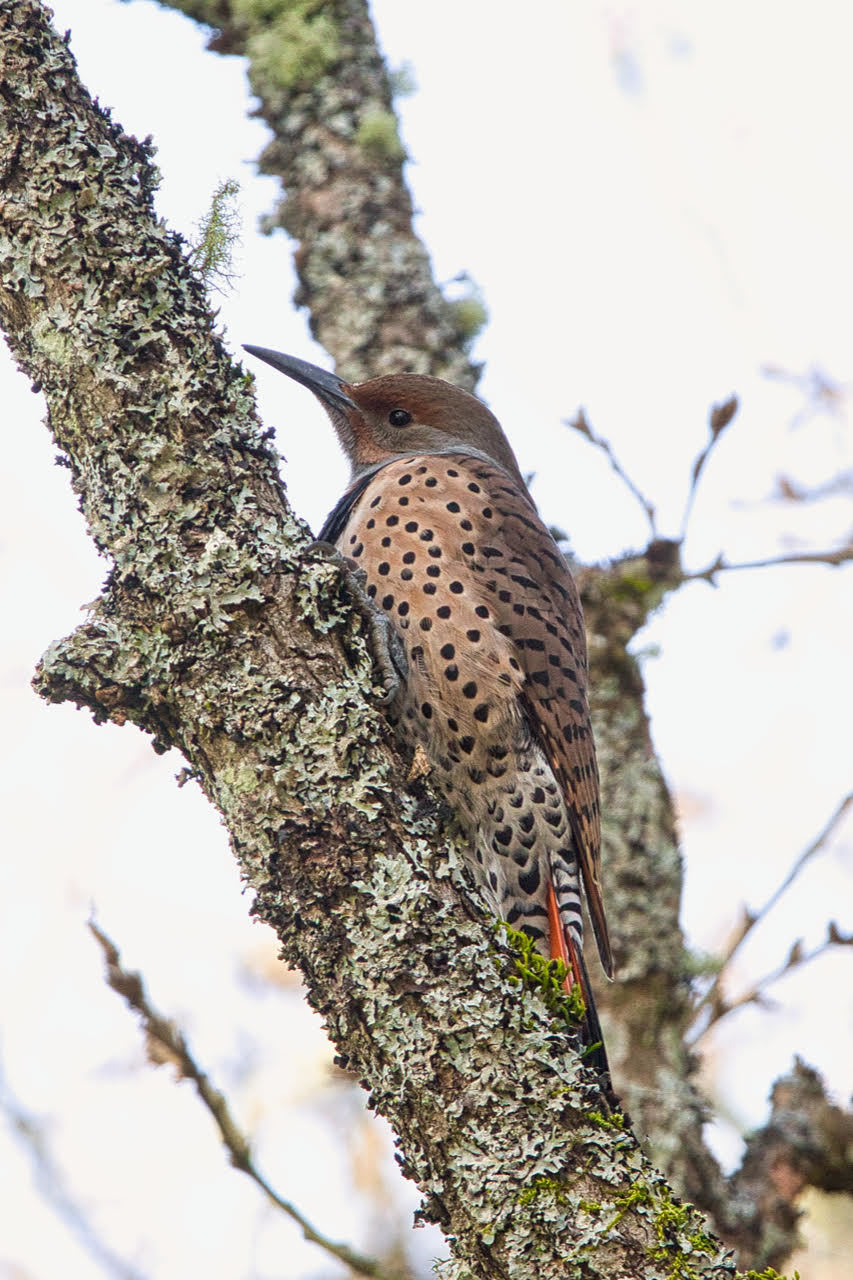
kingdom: Animalia
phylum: Chordata
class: Aves
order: Piciformes
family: Picidae
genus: Colaptes
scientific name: Colaptes auratus
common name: Northern flicker
